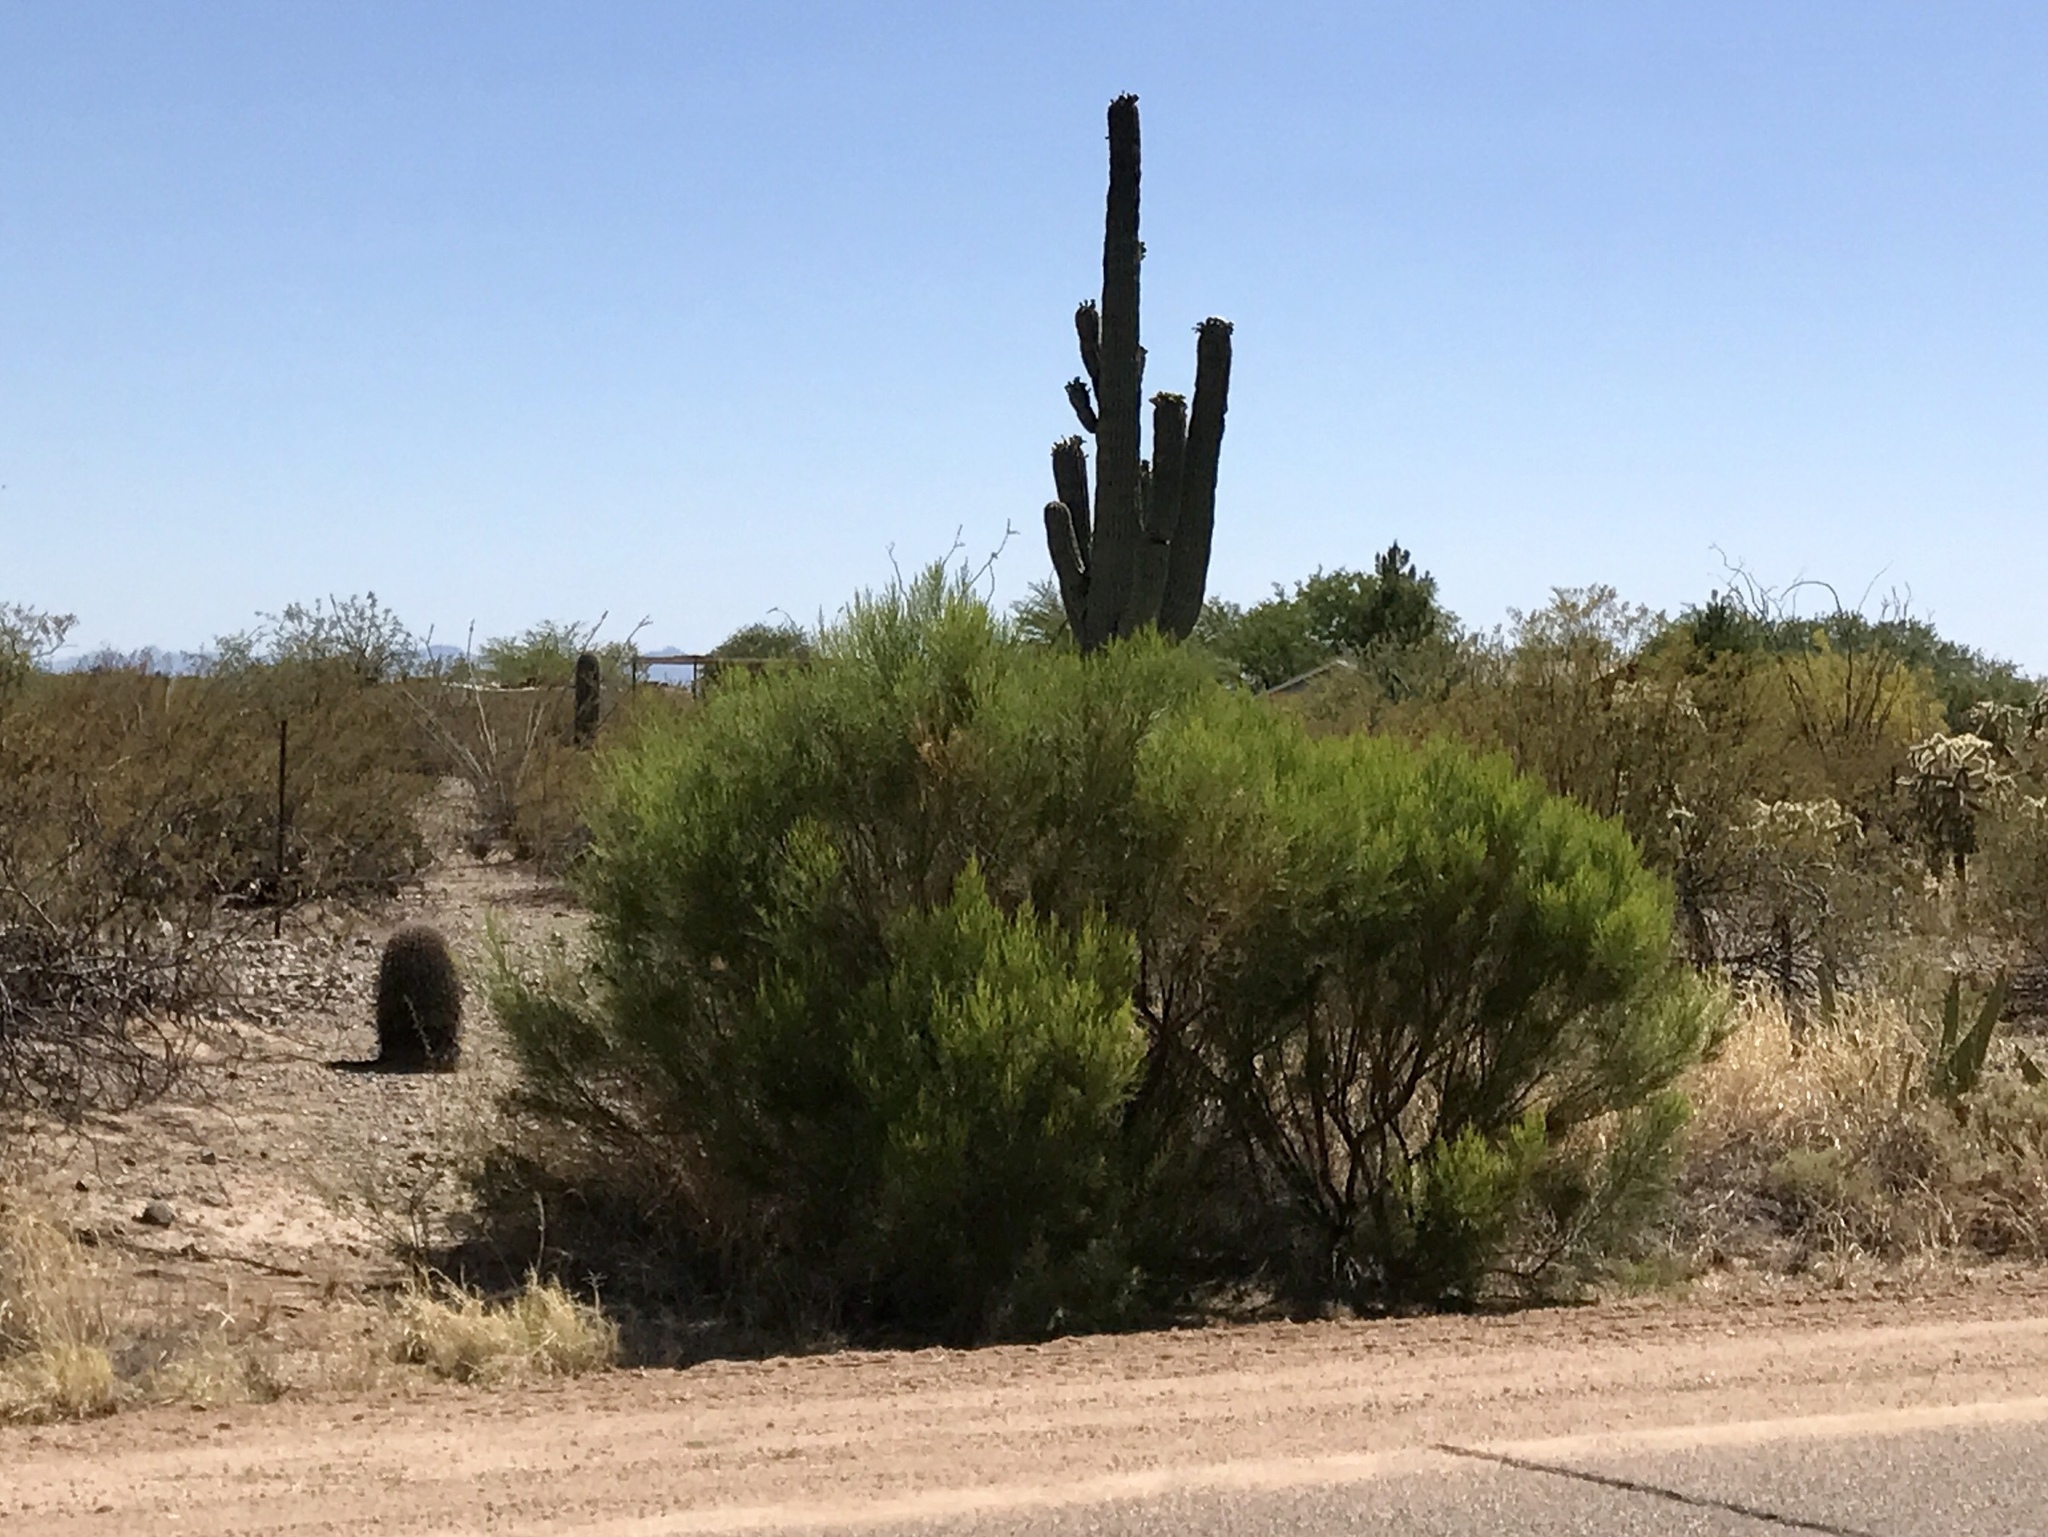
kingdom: Plantae
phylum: Tracheophyta
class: Magnoliopsida
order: Asterales
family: Asteraceae
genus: Baccharis
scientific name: Baccharis sarothroides
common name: Desert-broom
